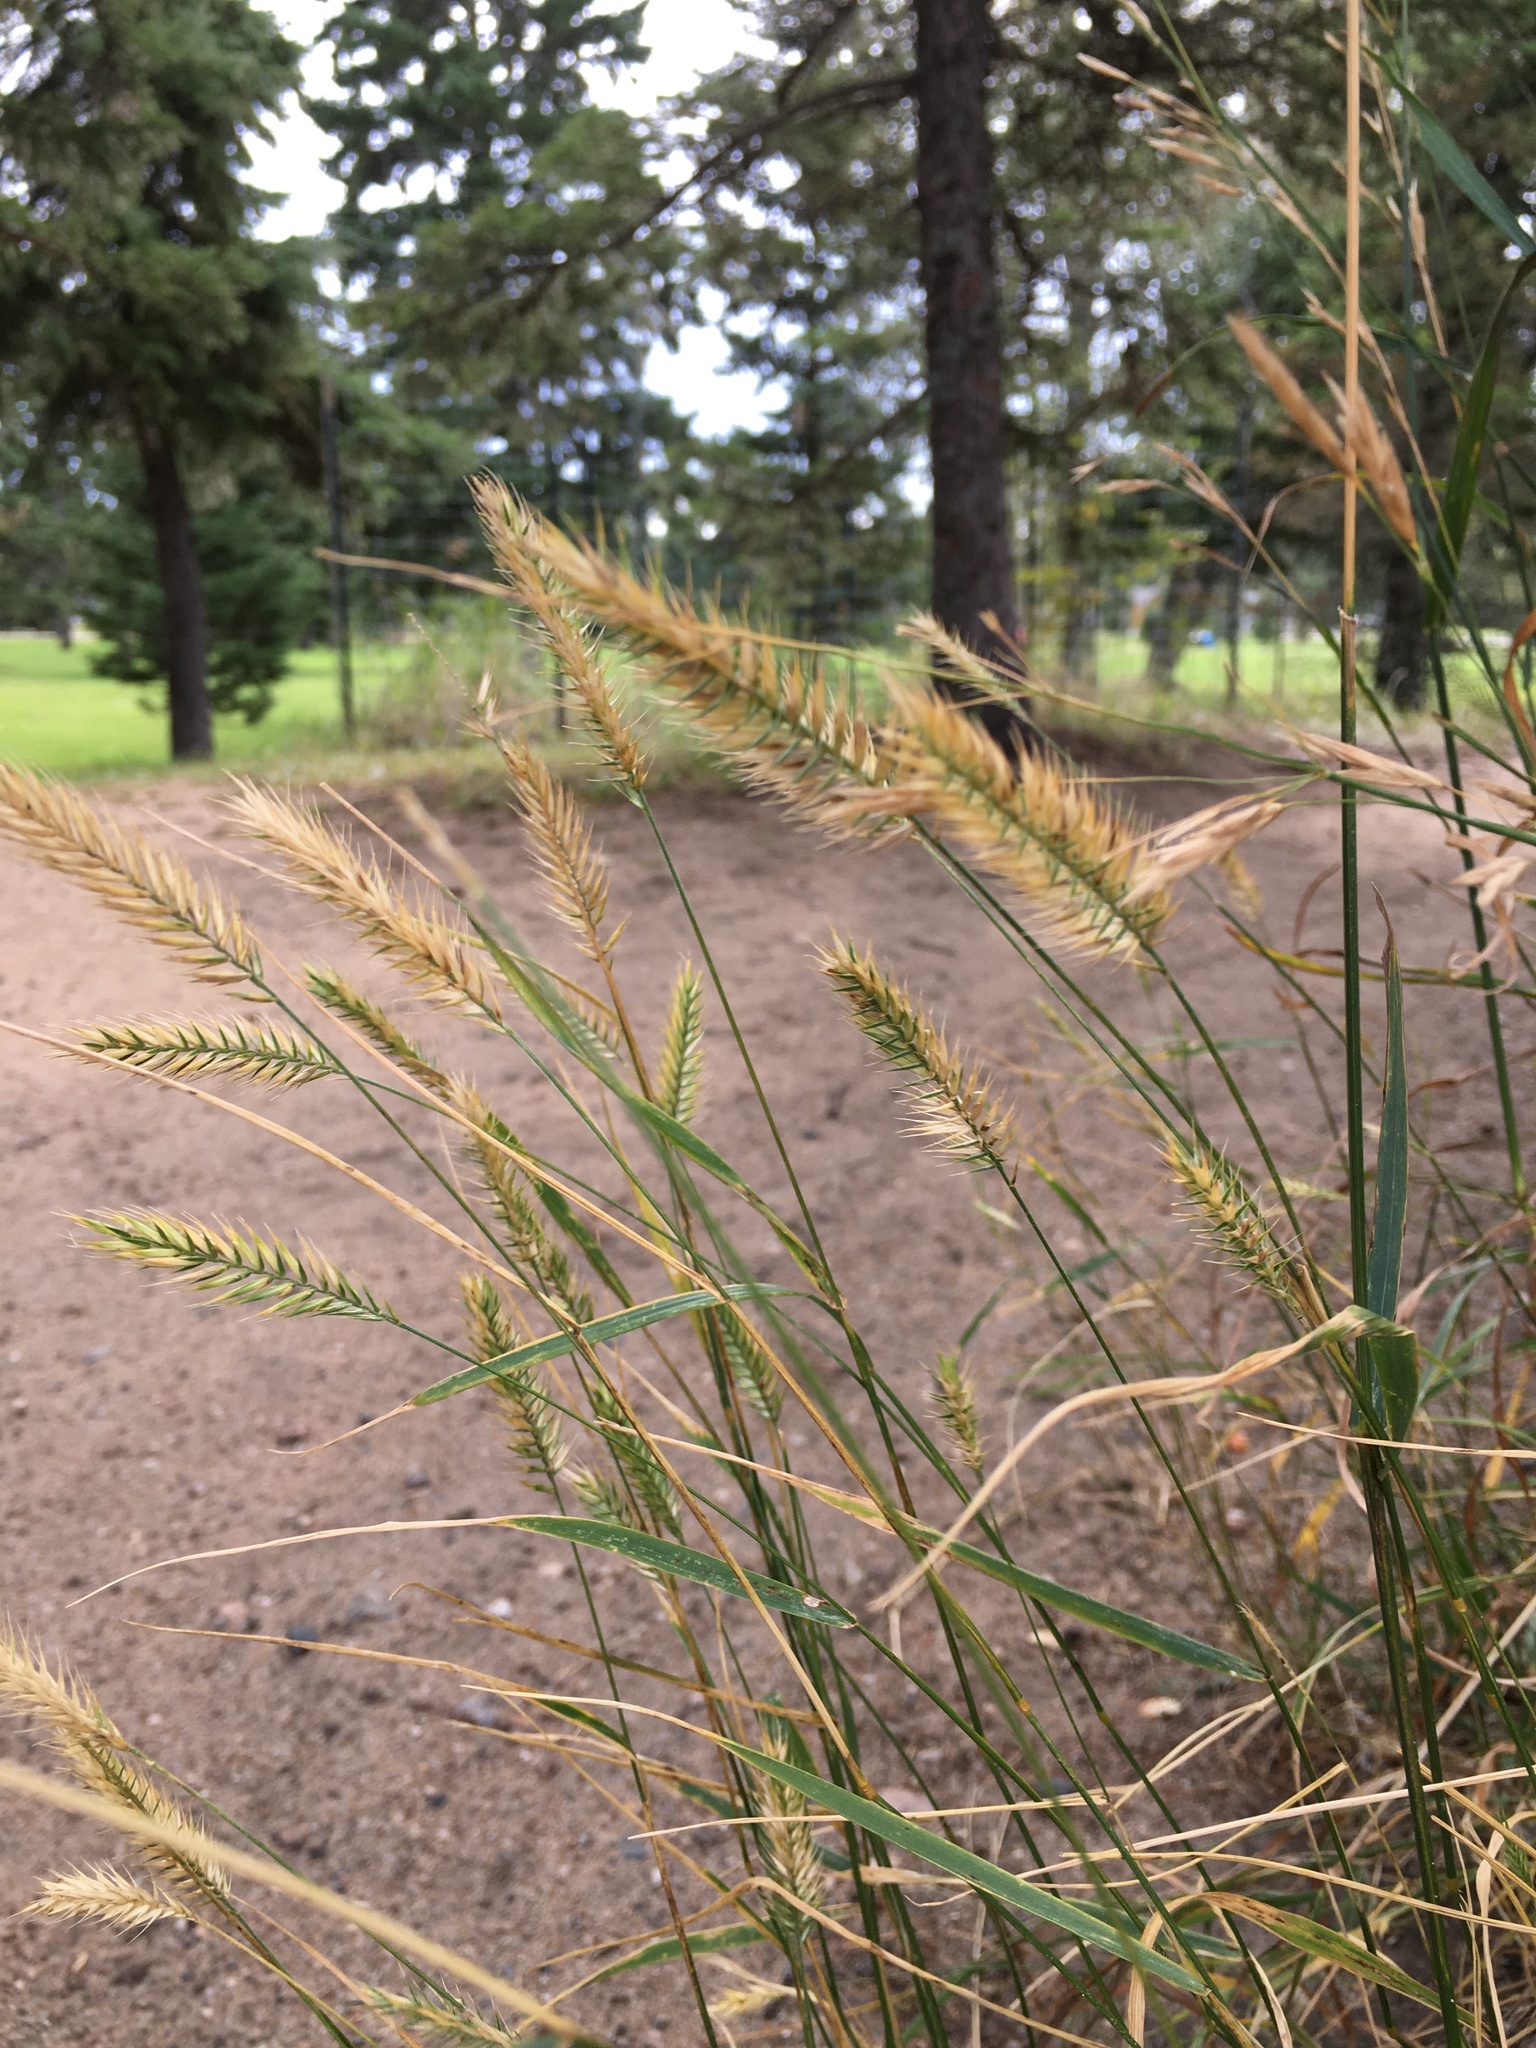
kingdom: Plantae
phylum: Tracheophyta
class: Liliopsida
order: Poales
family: Poaceae
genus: Agropyron
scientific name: Agropyron cristatum
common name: Crested wheatgrass
